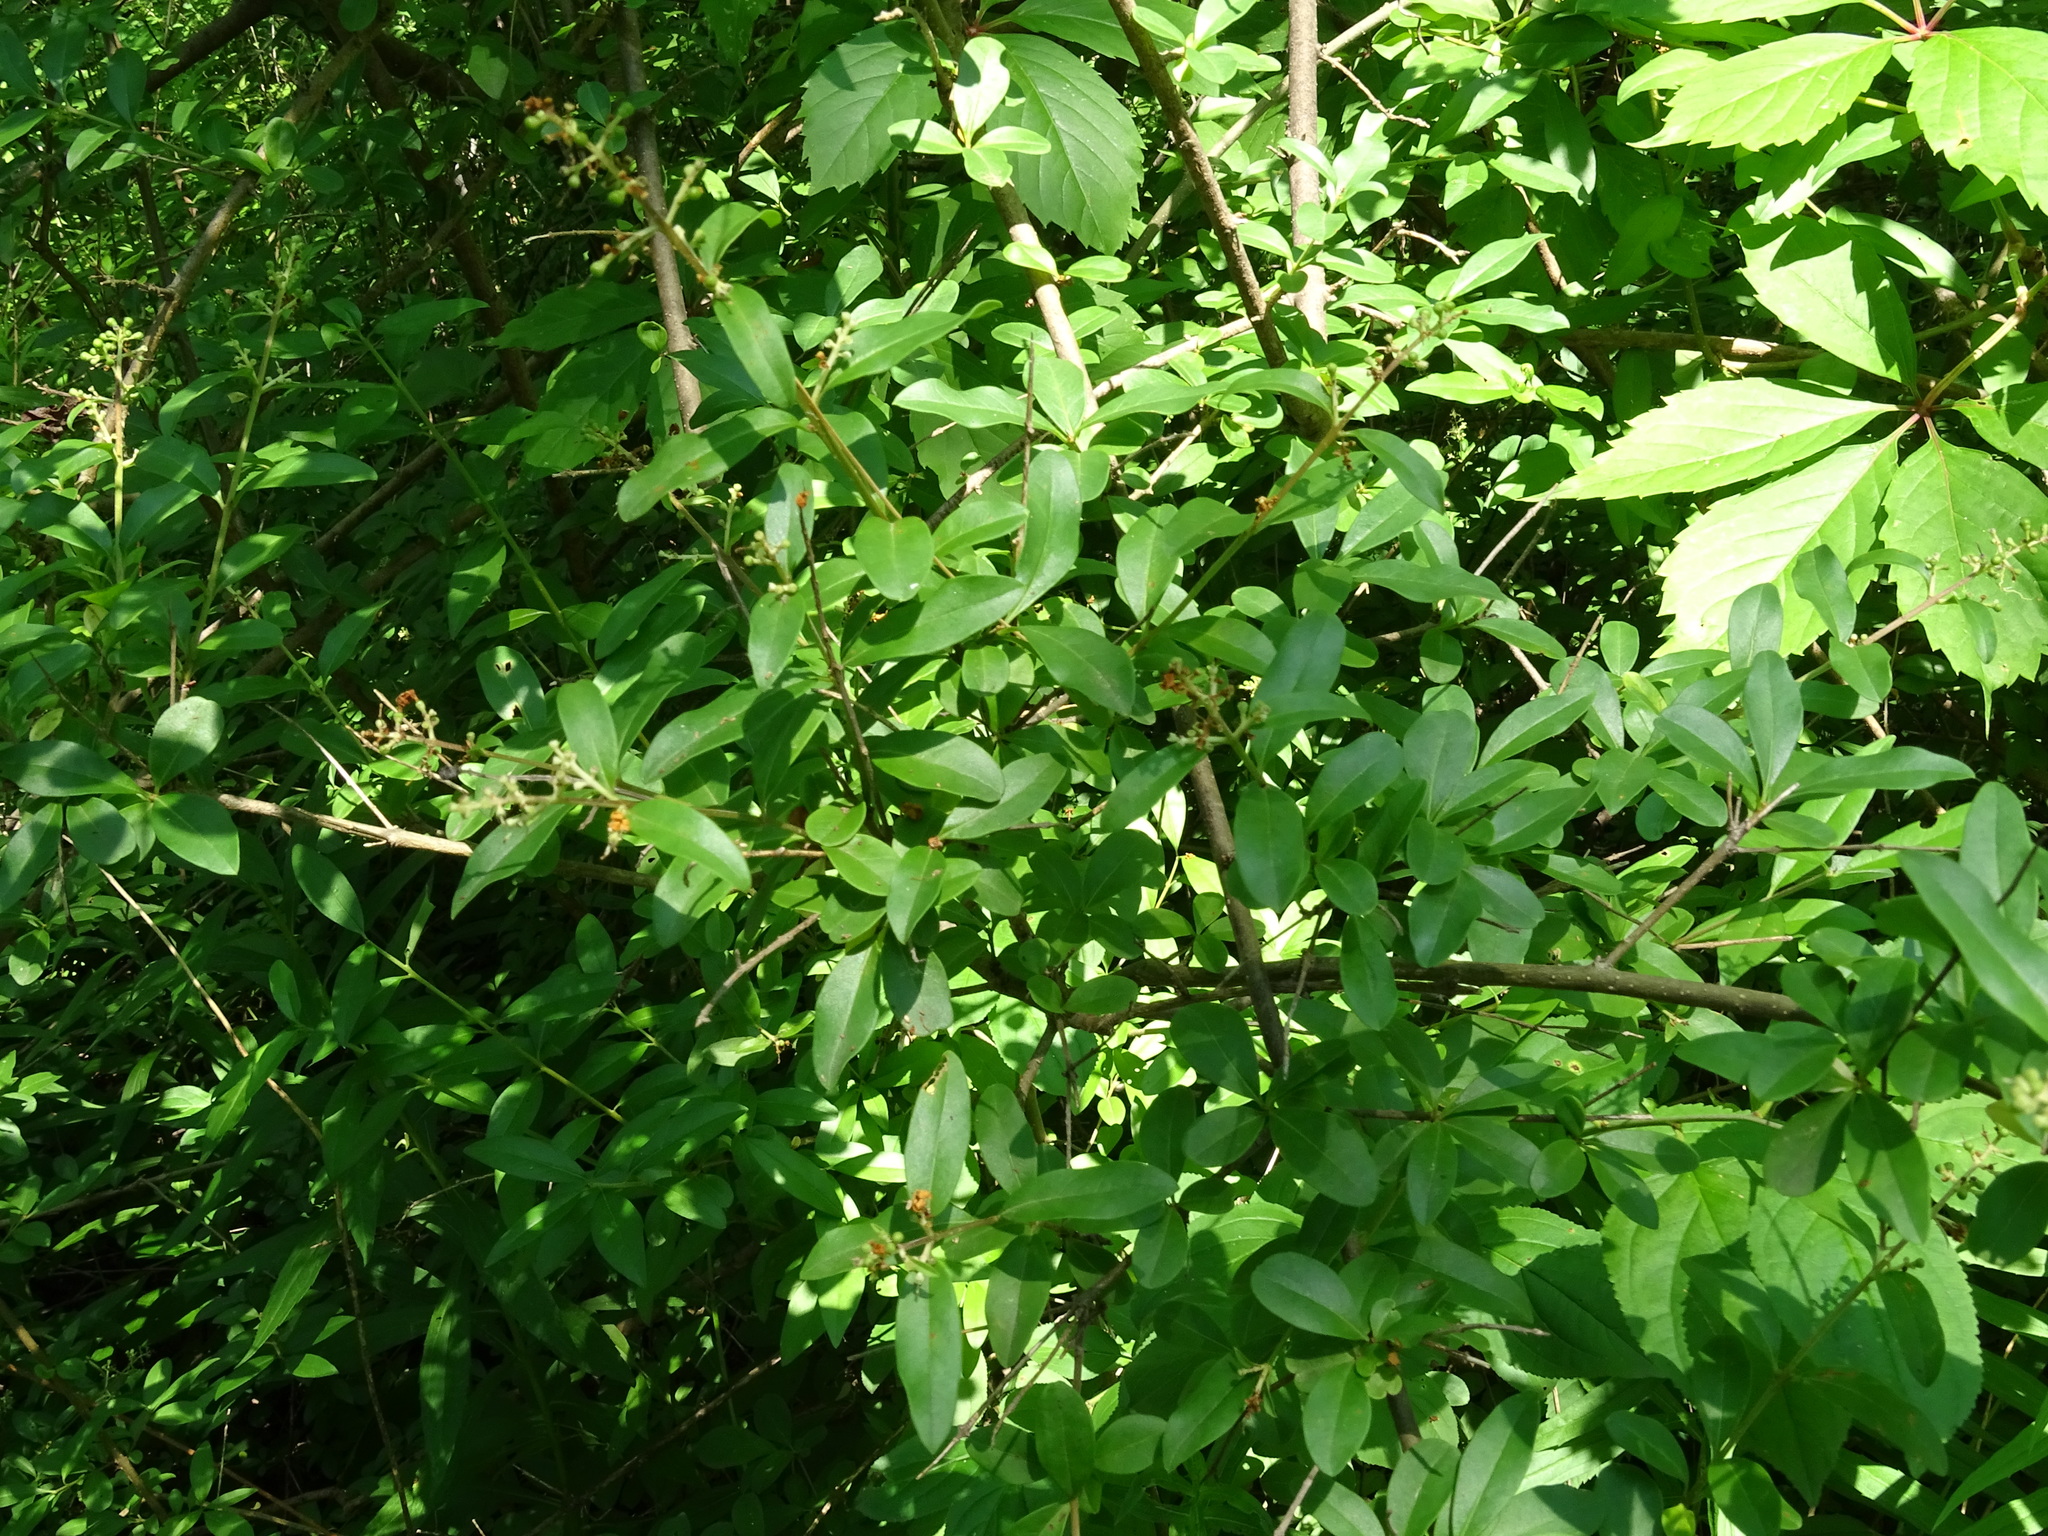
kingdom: Plantae
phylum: Tracheophyta
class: Magnoliopsida
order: Lamiales
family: Oleaceae
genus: Ligustrum
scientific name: Ligustrum vulgare
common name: Wild privet
